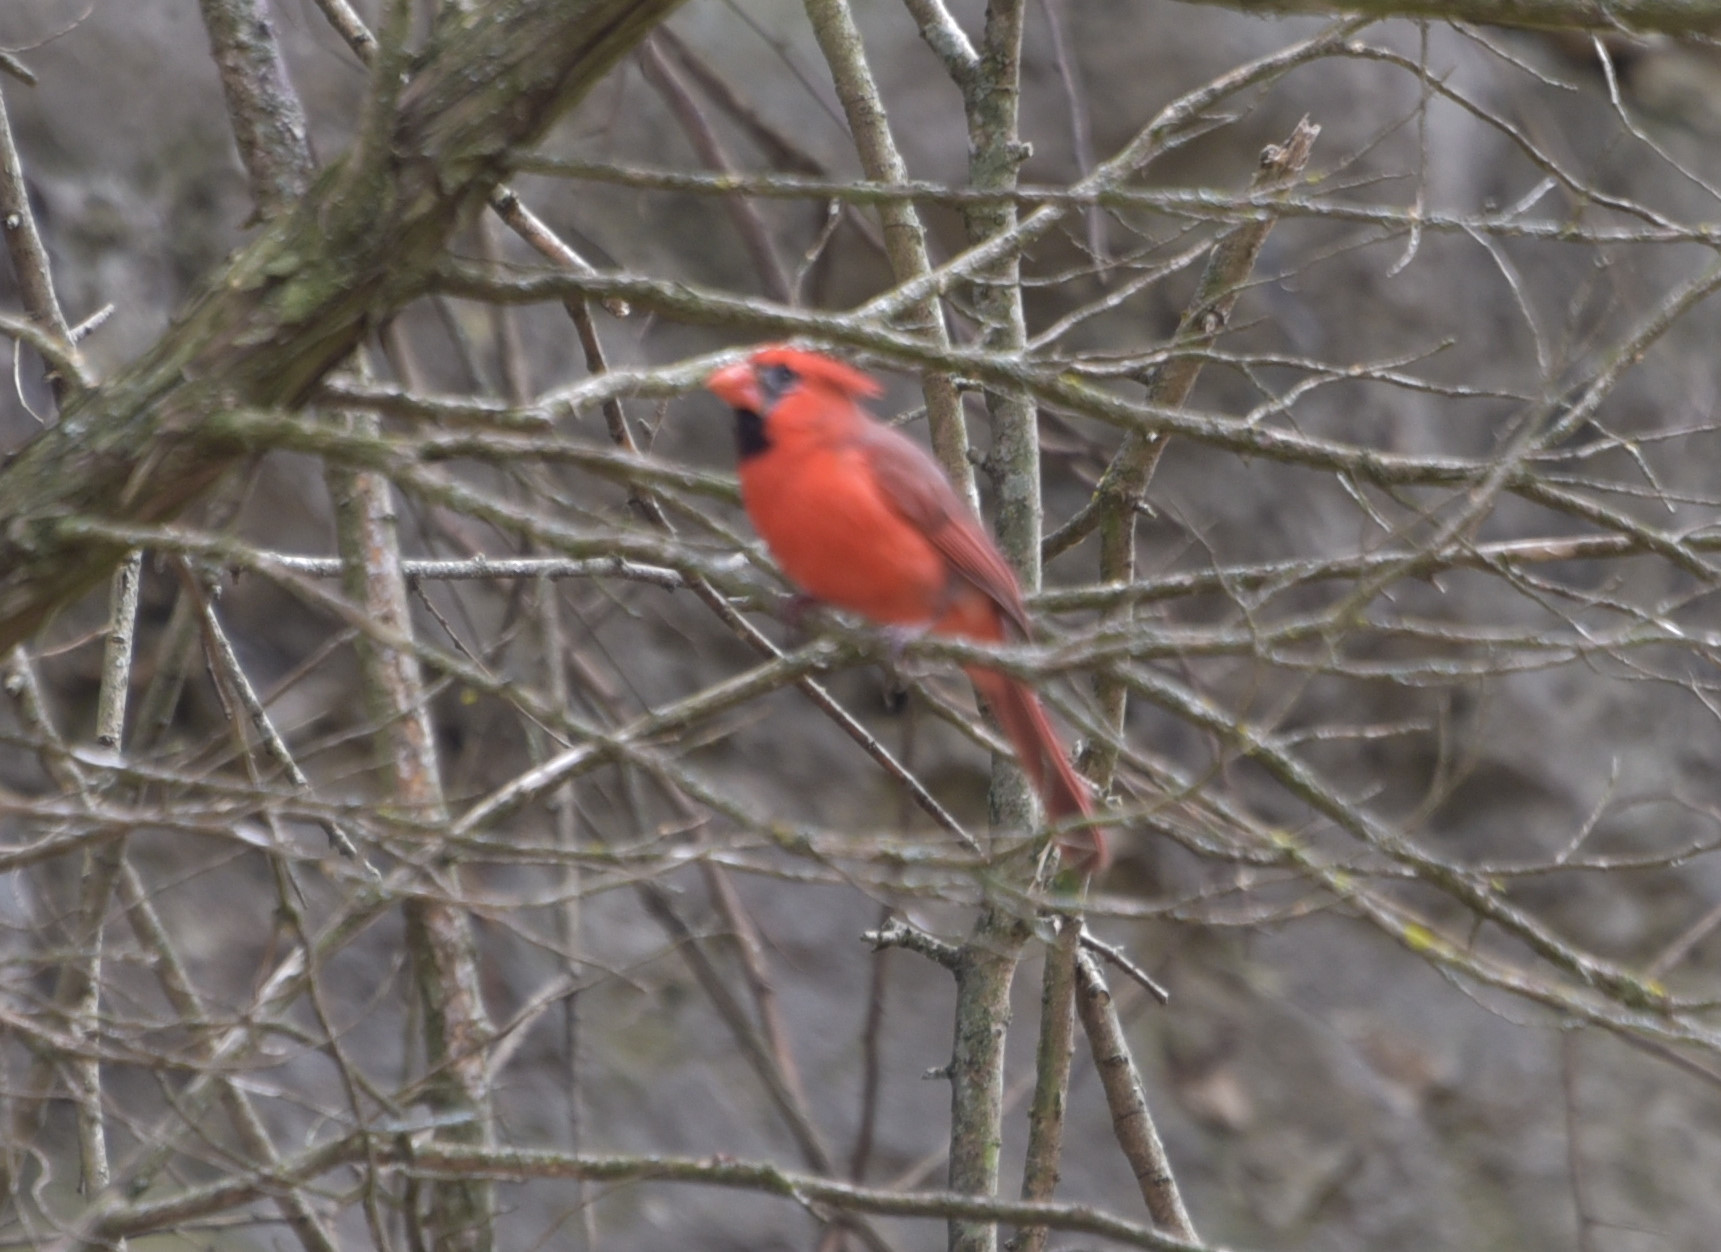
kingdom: Animalia
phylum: Chordata
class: Aves
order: Passeriformes
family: Cardinalidae
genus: Cardinalis
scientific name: Cardinalis cardinalis
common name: Northern cardinal
